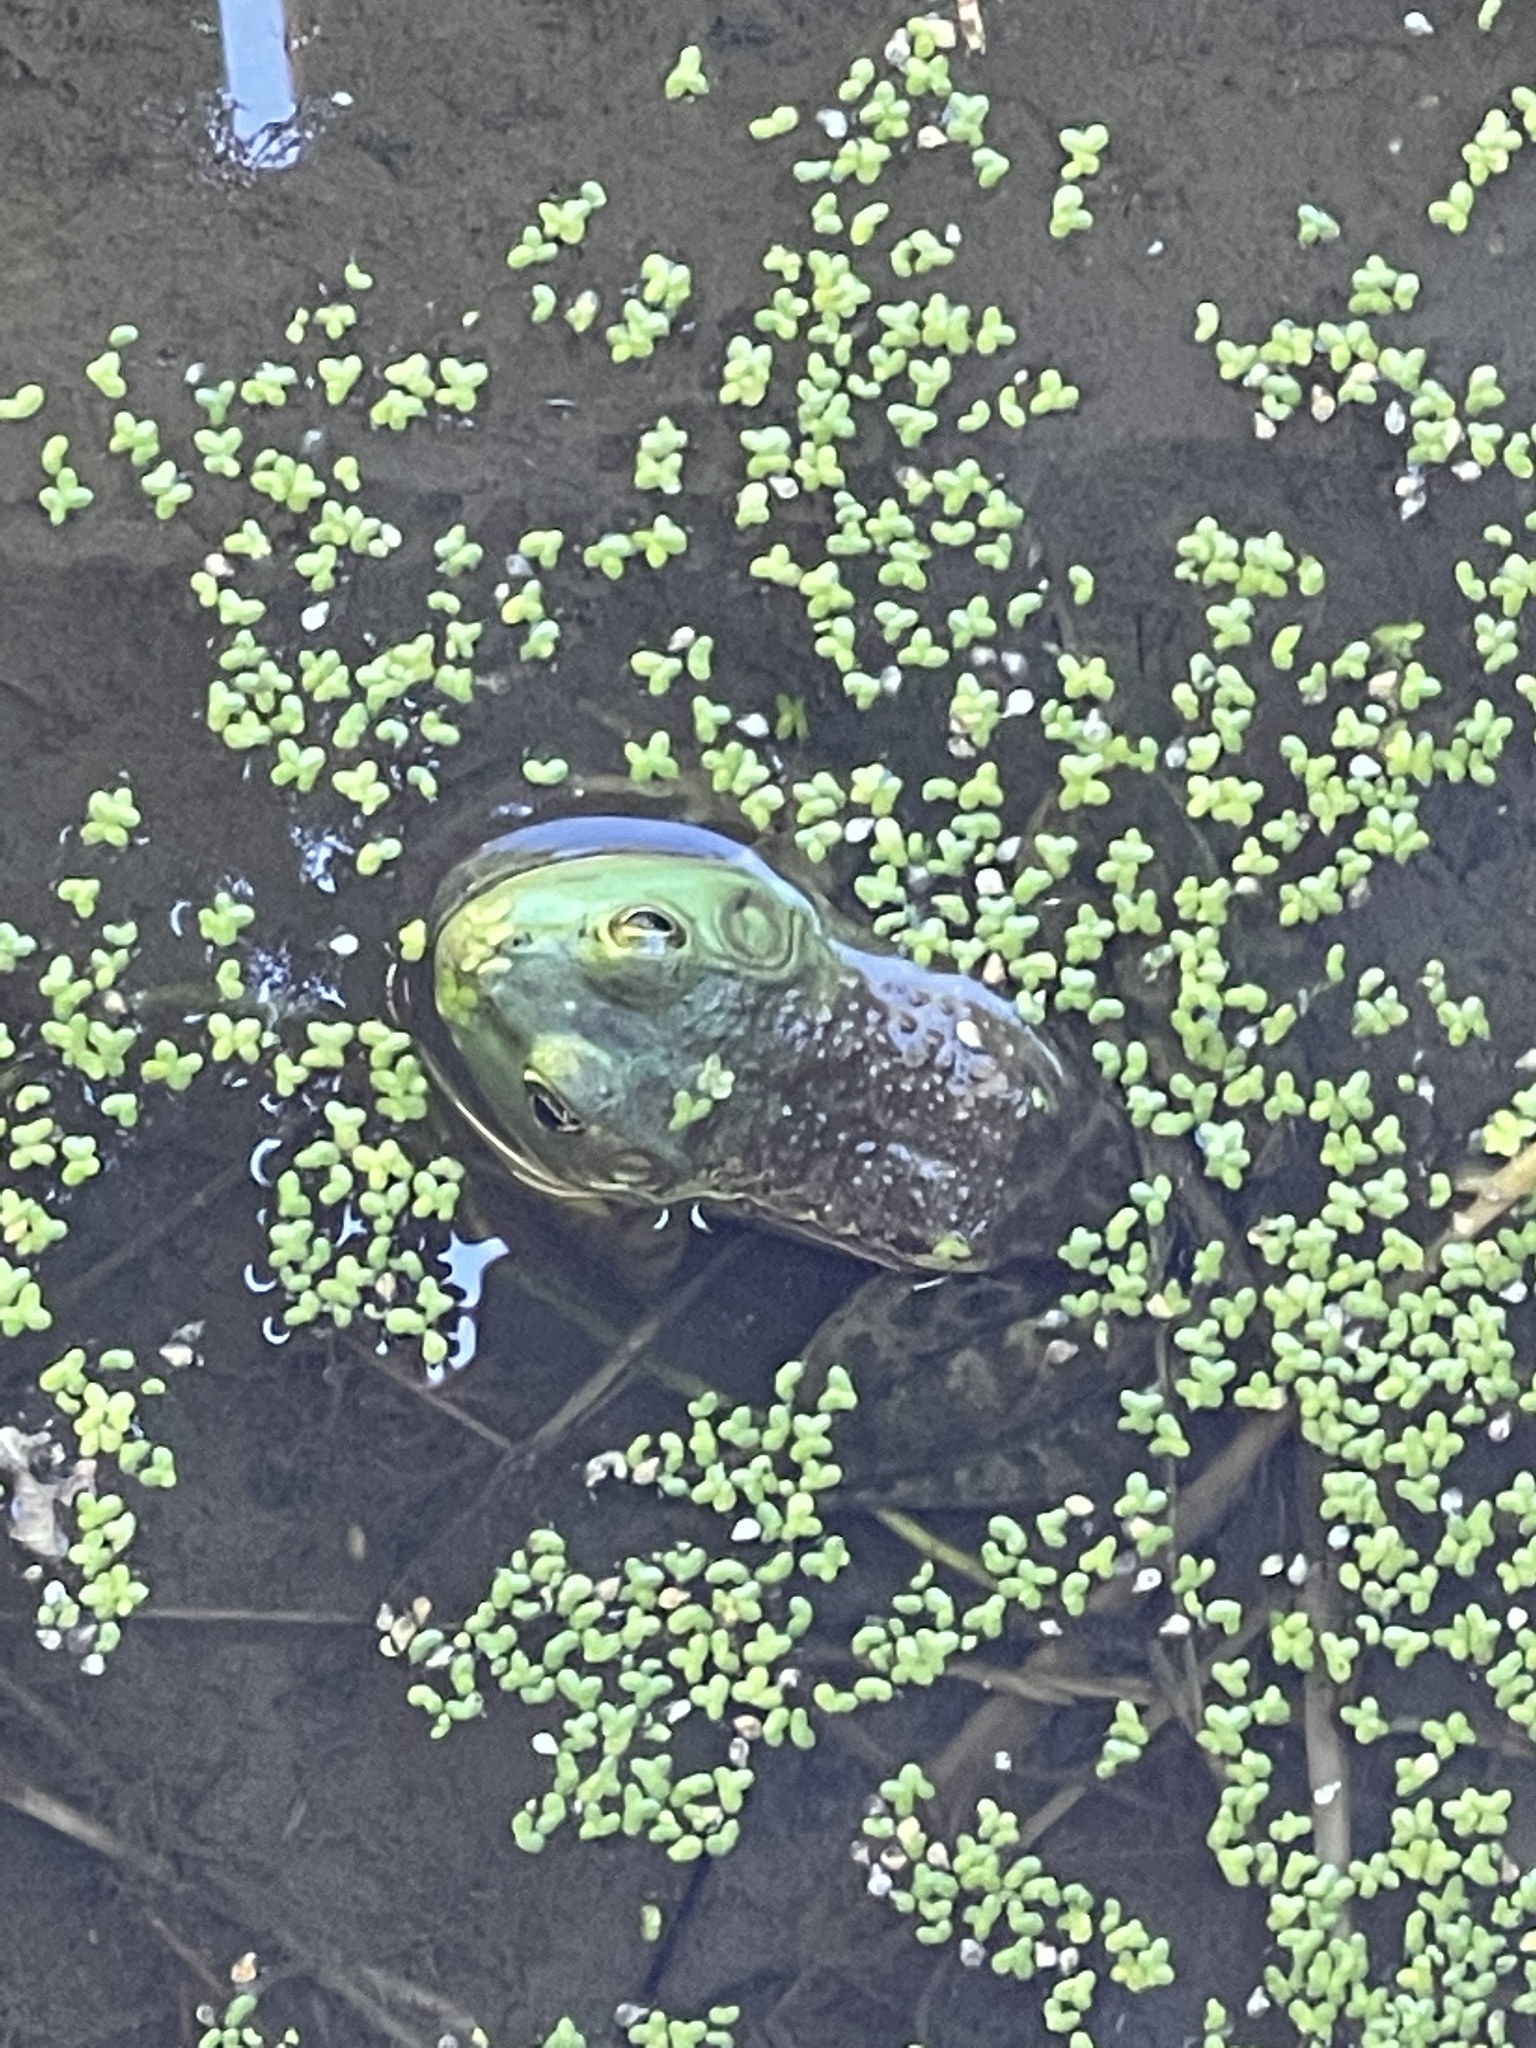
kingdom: Animalia
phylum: Chordata
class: Amphibia
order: Anura
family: Ranidae
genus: Lithobates
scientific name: Lithobates catesbeianus
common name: American bullfrog
